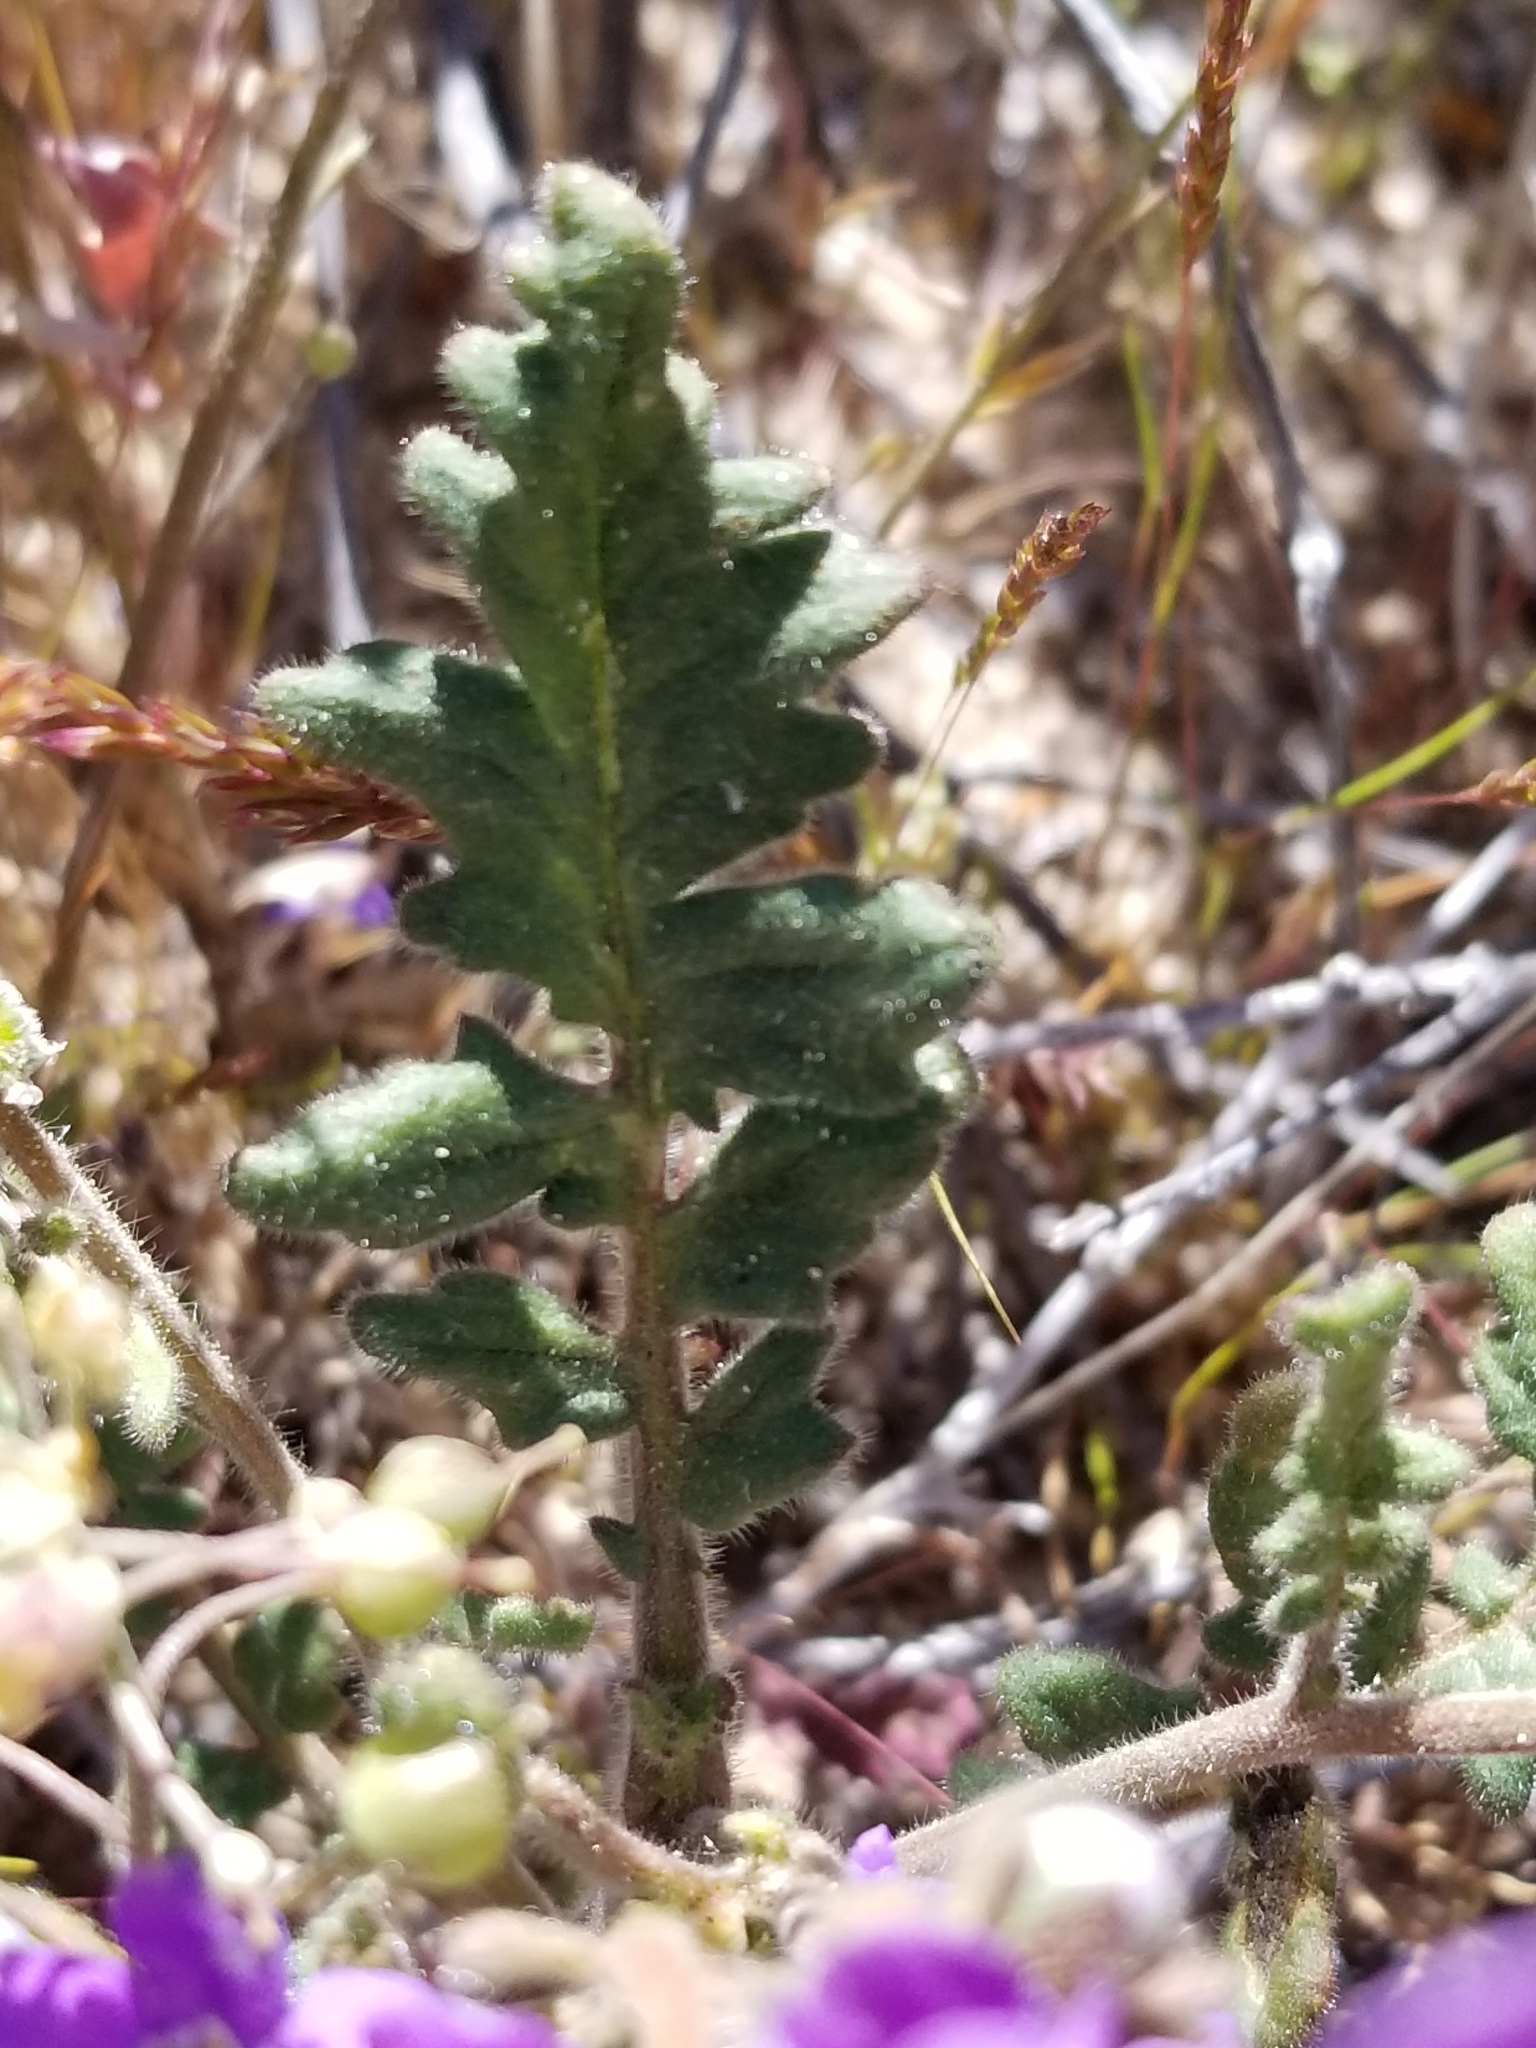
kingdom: Plantae
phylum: Tracheophyta
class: Magnoliopsida
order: Boraginales
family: Hydrophyllaceae
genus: Phacelia
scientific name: Phacelia crenulata
